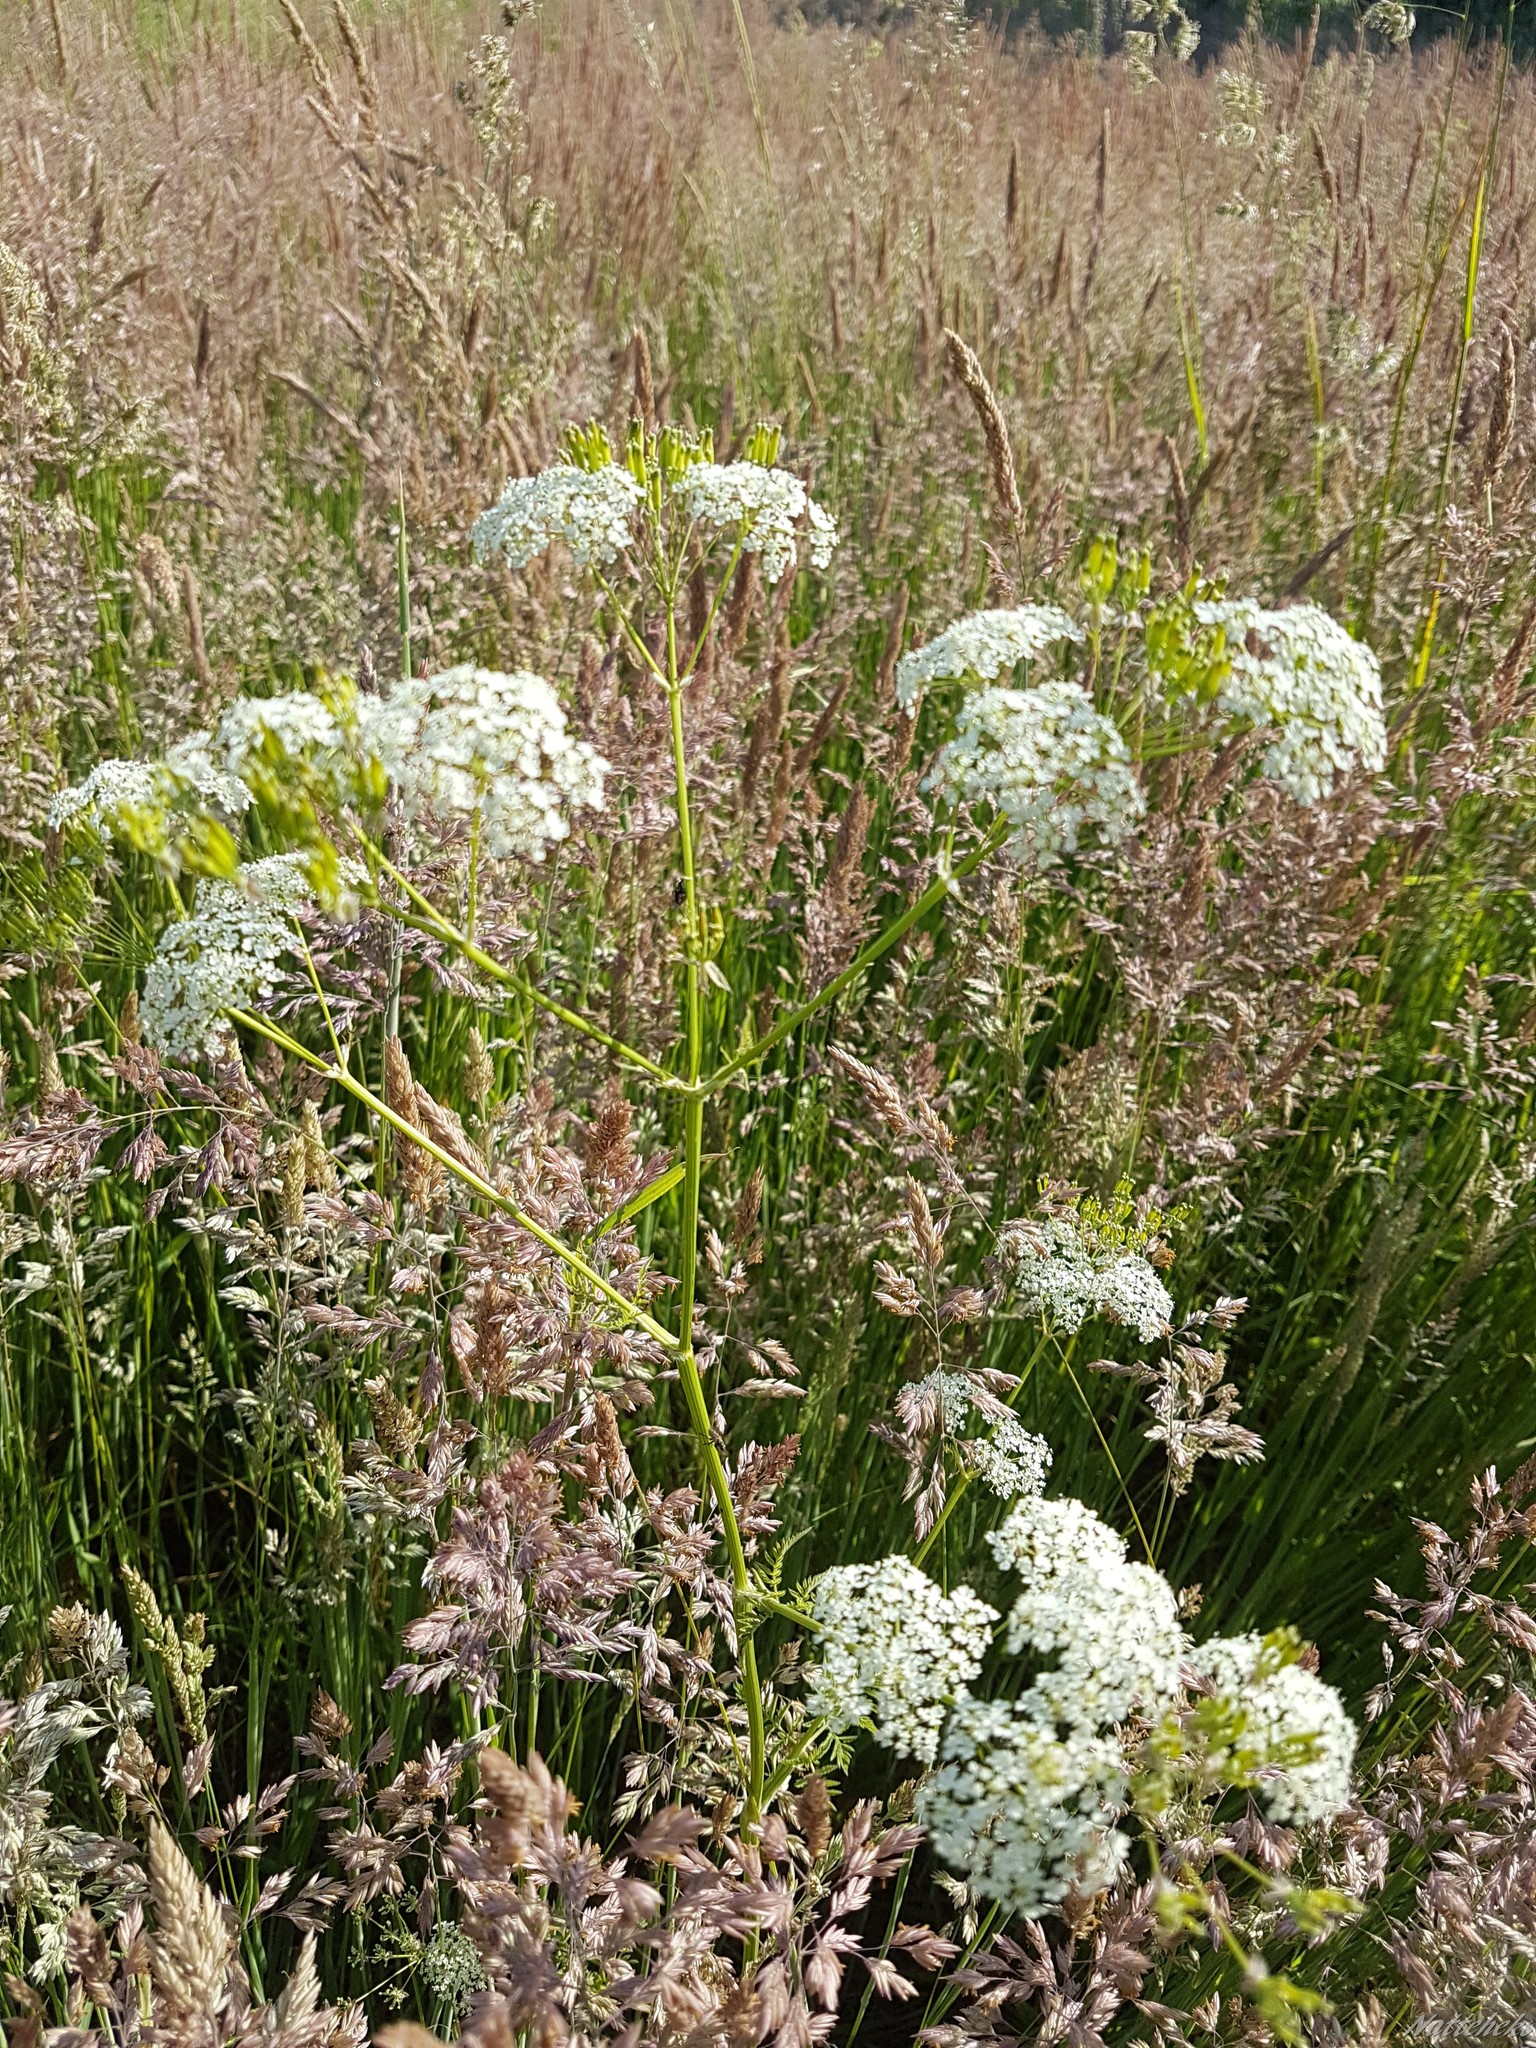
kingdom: Plantae
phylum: Tracheophyta
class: Magnoliopsida
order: Apiales
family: Apiaceae
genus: Anthriscus
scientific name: Anthriscus sylvestris
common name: Cow parsley
